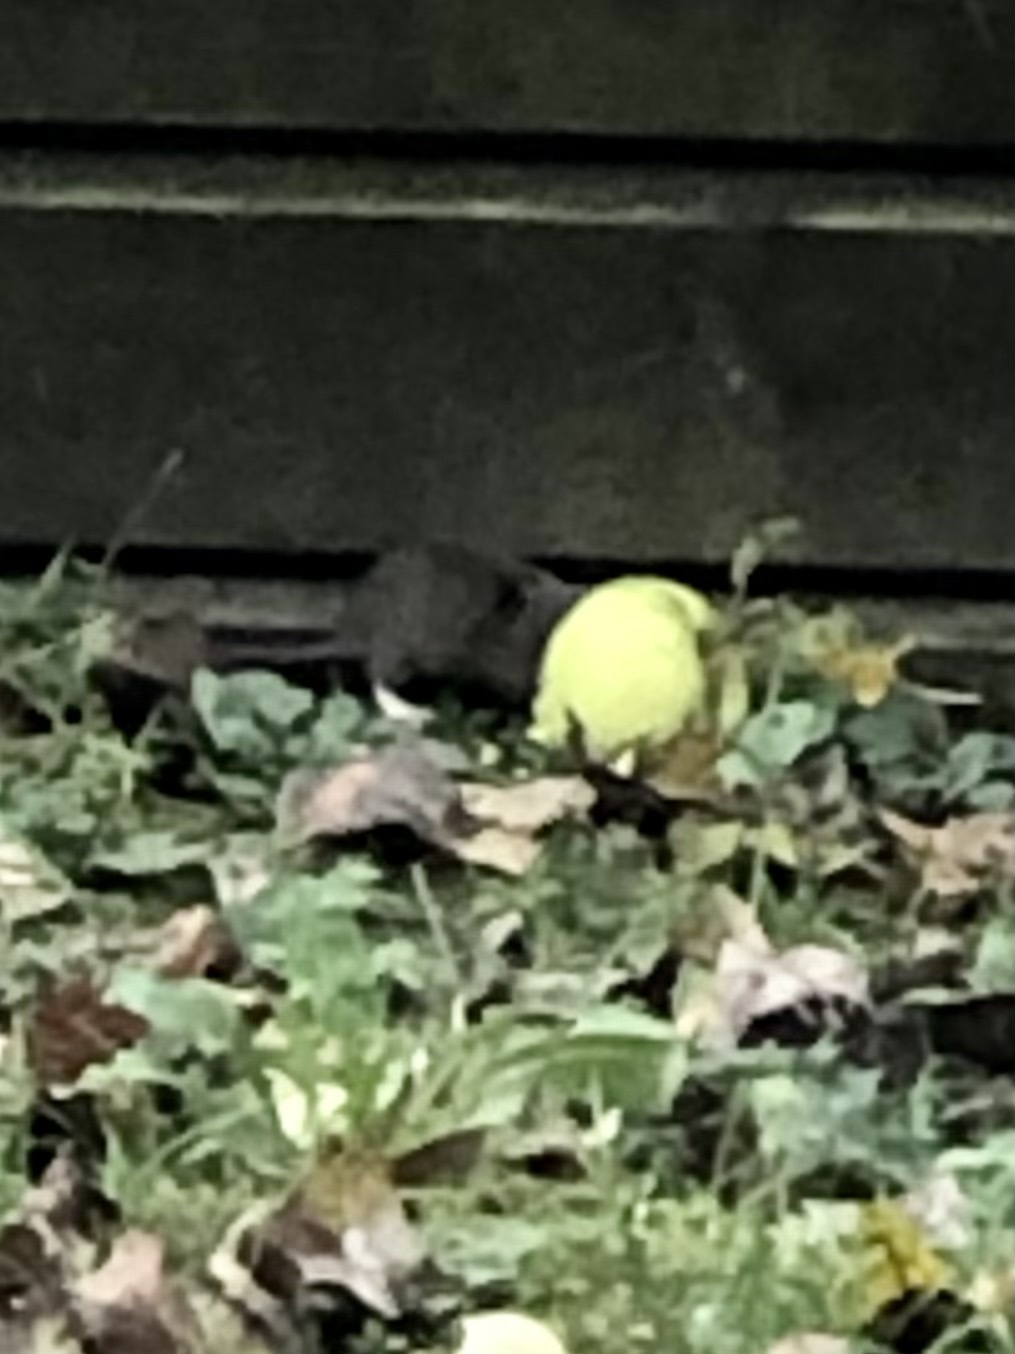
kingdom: Animalia
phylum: Chordata
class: Mammalia
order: Rodentia
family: Muridae
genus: Rattus
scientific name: Rattus norvegicus
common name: Brown rat
